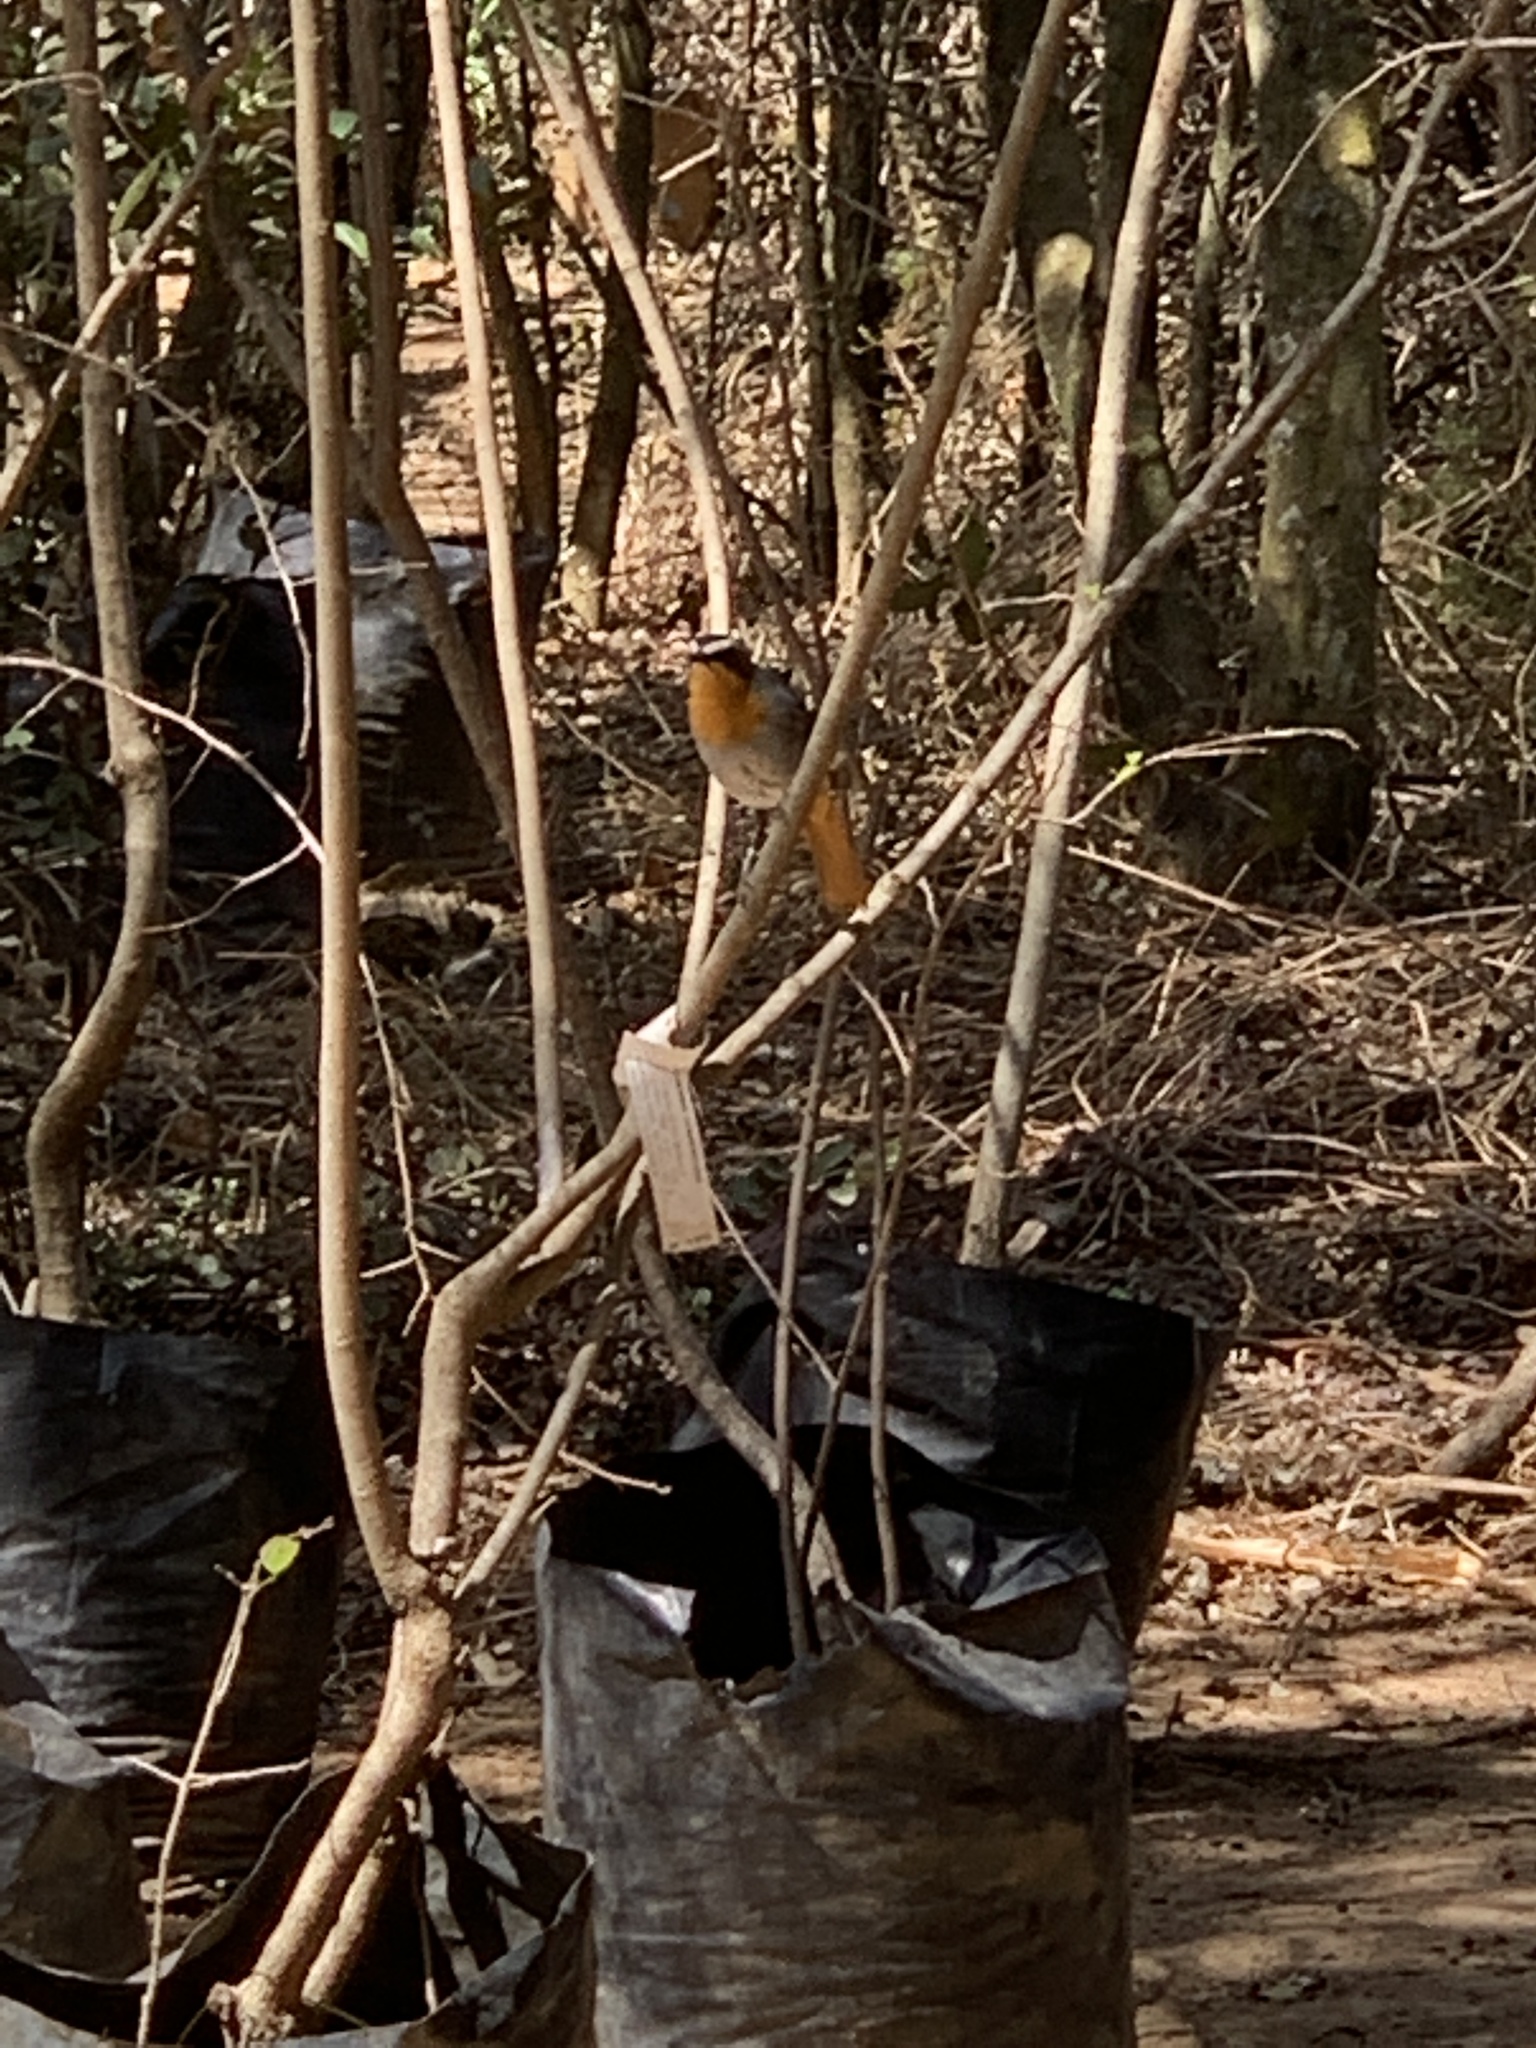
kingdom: Animalia
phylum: Chordata
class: Aves
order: Passeriformes
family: Muscicapidae
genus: Cossypha
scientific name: Cossypha caffra
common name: Cape robin-chat
